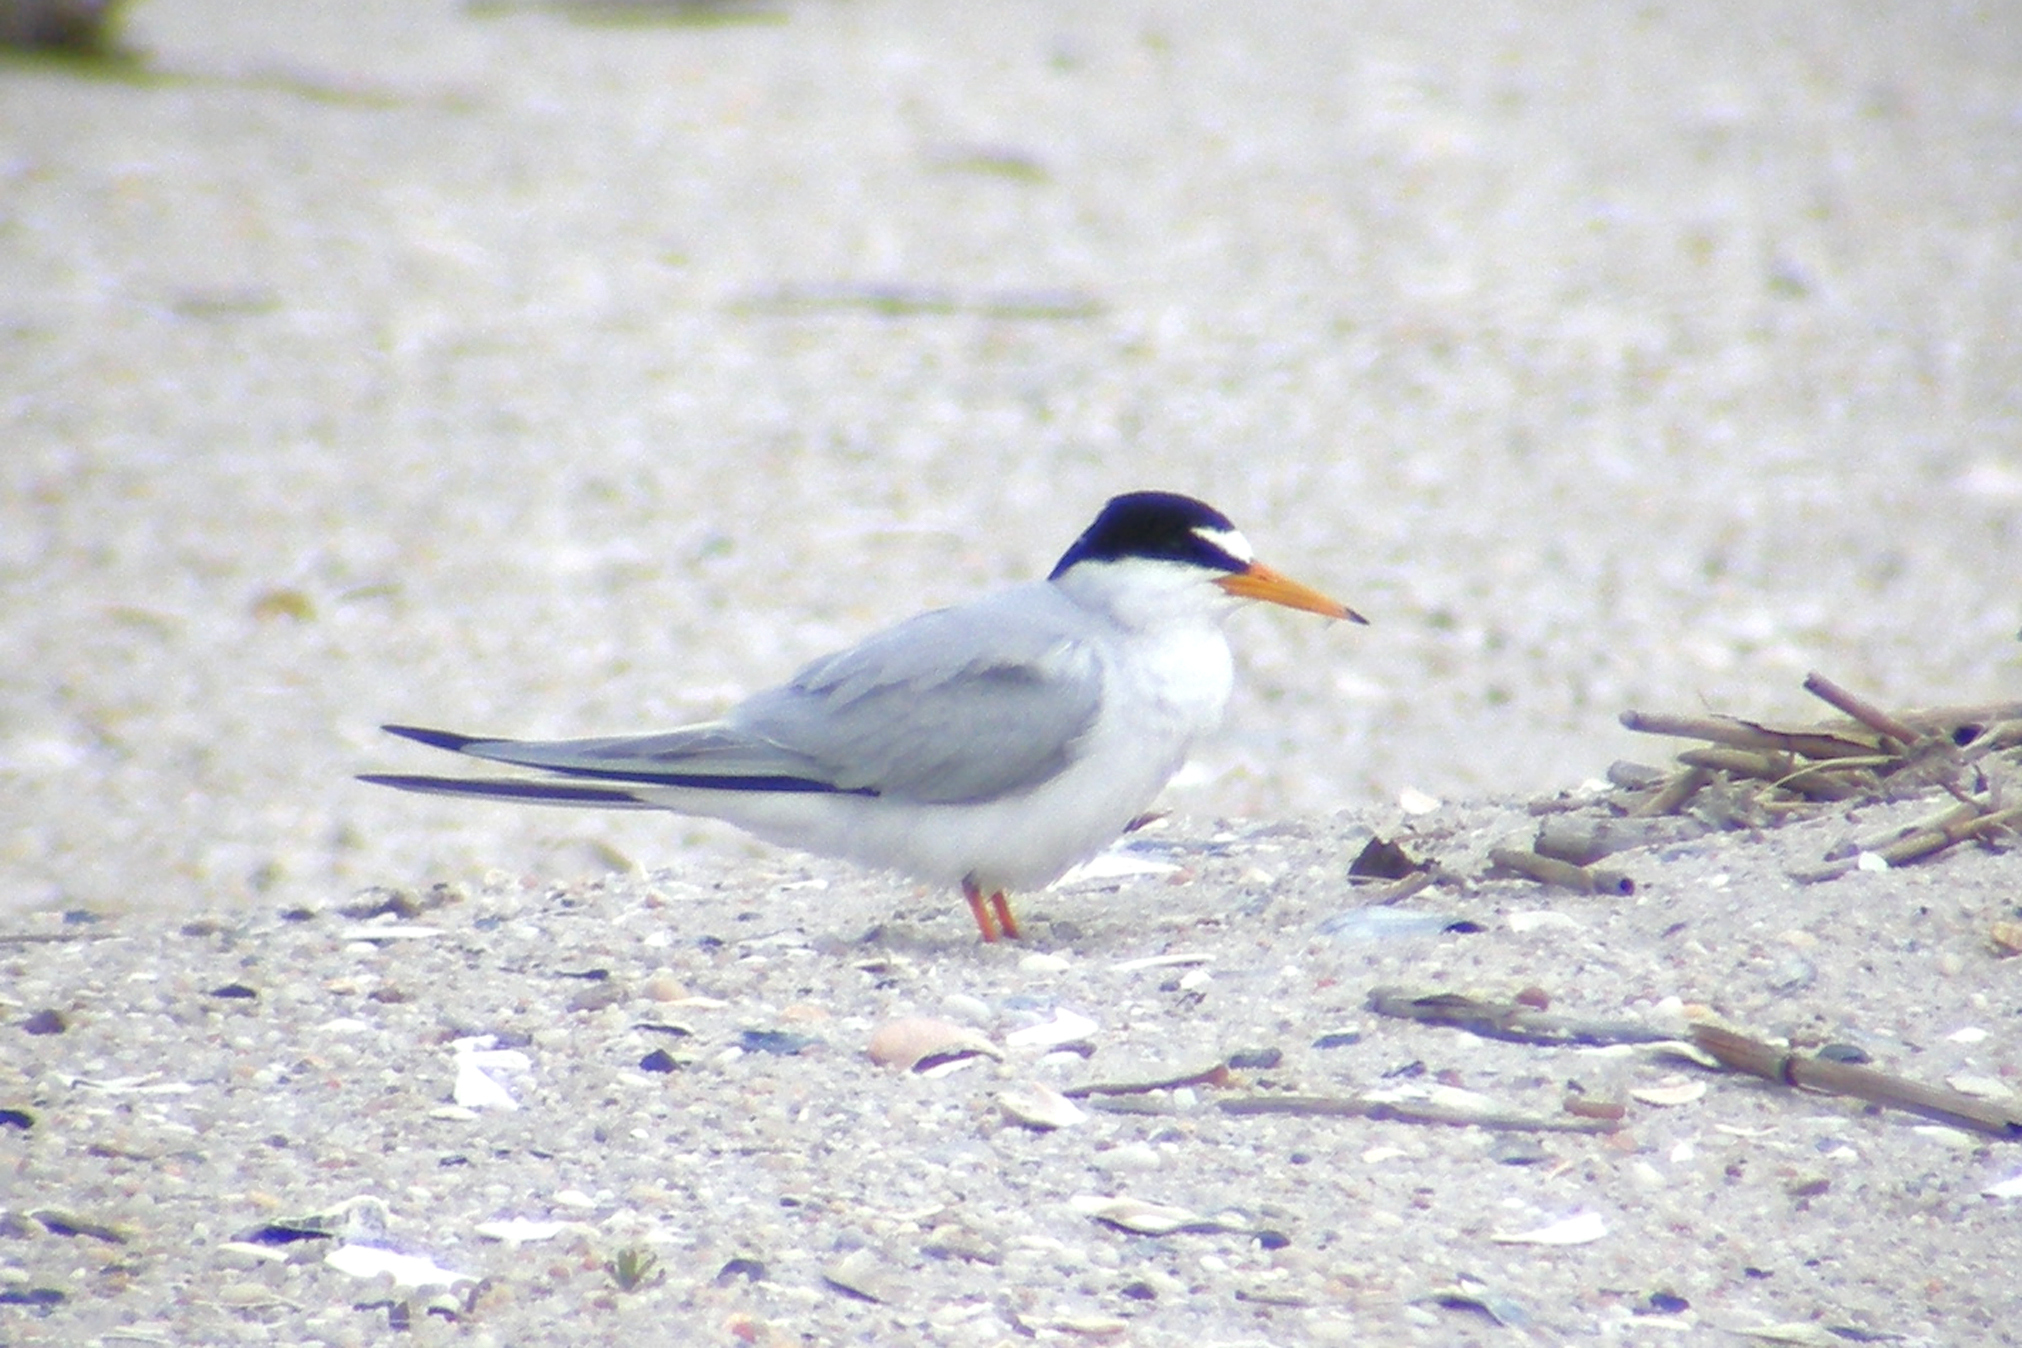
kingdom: Animalia
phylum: Chordata
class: Aves
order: Charadriiformes
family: Laridae
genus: Sternula
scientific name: Sternula antillarum
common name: Least tern
